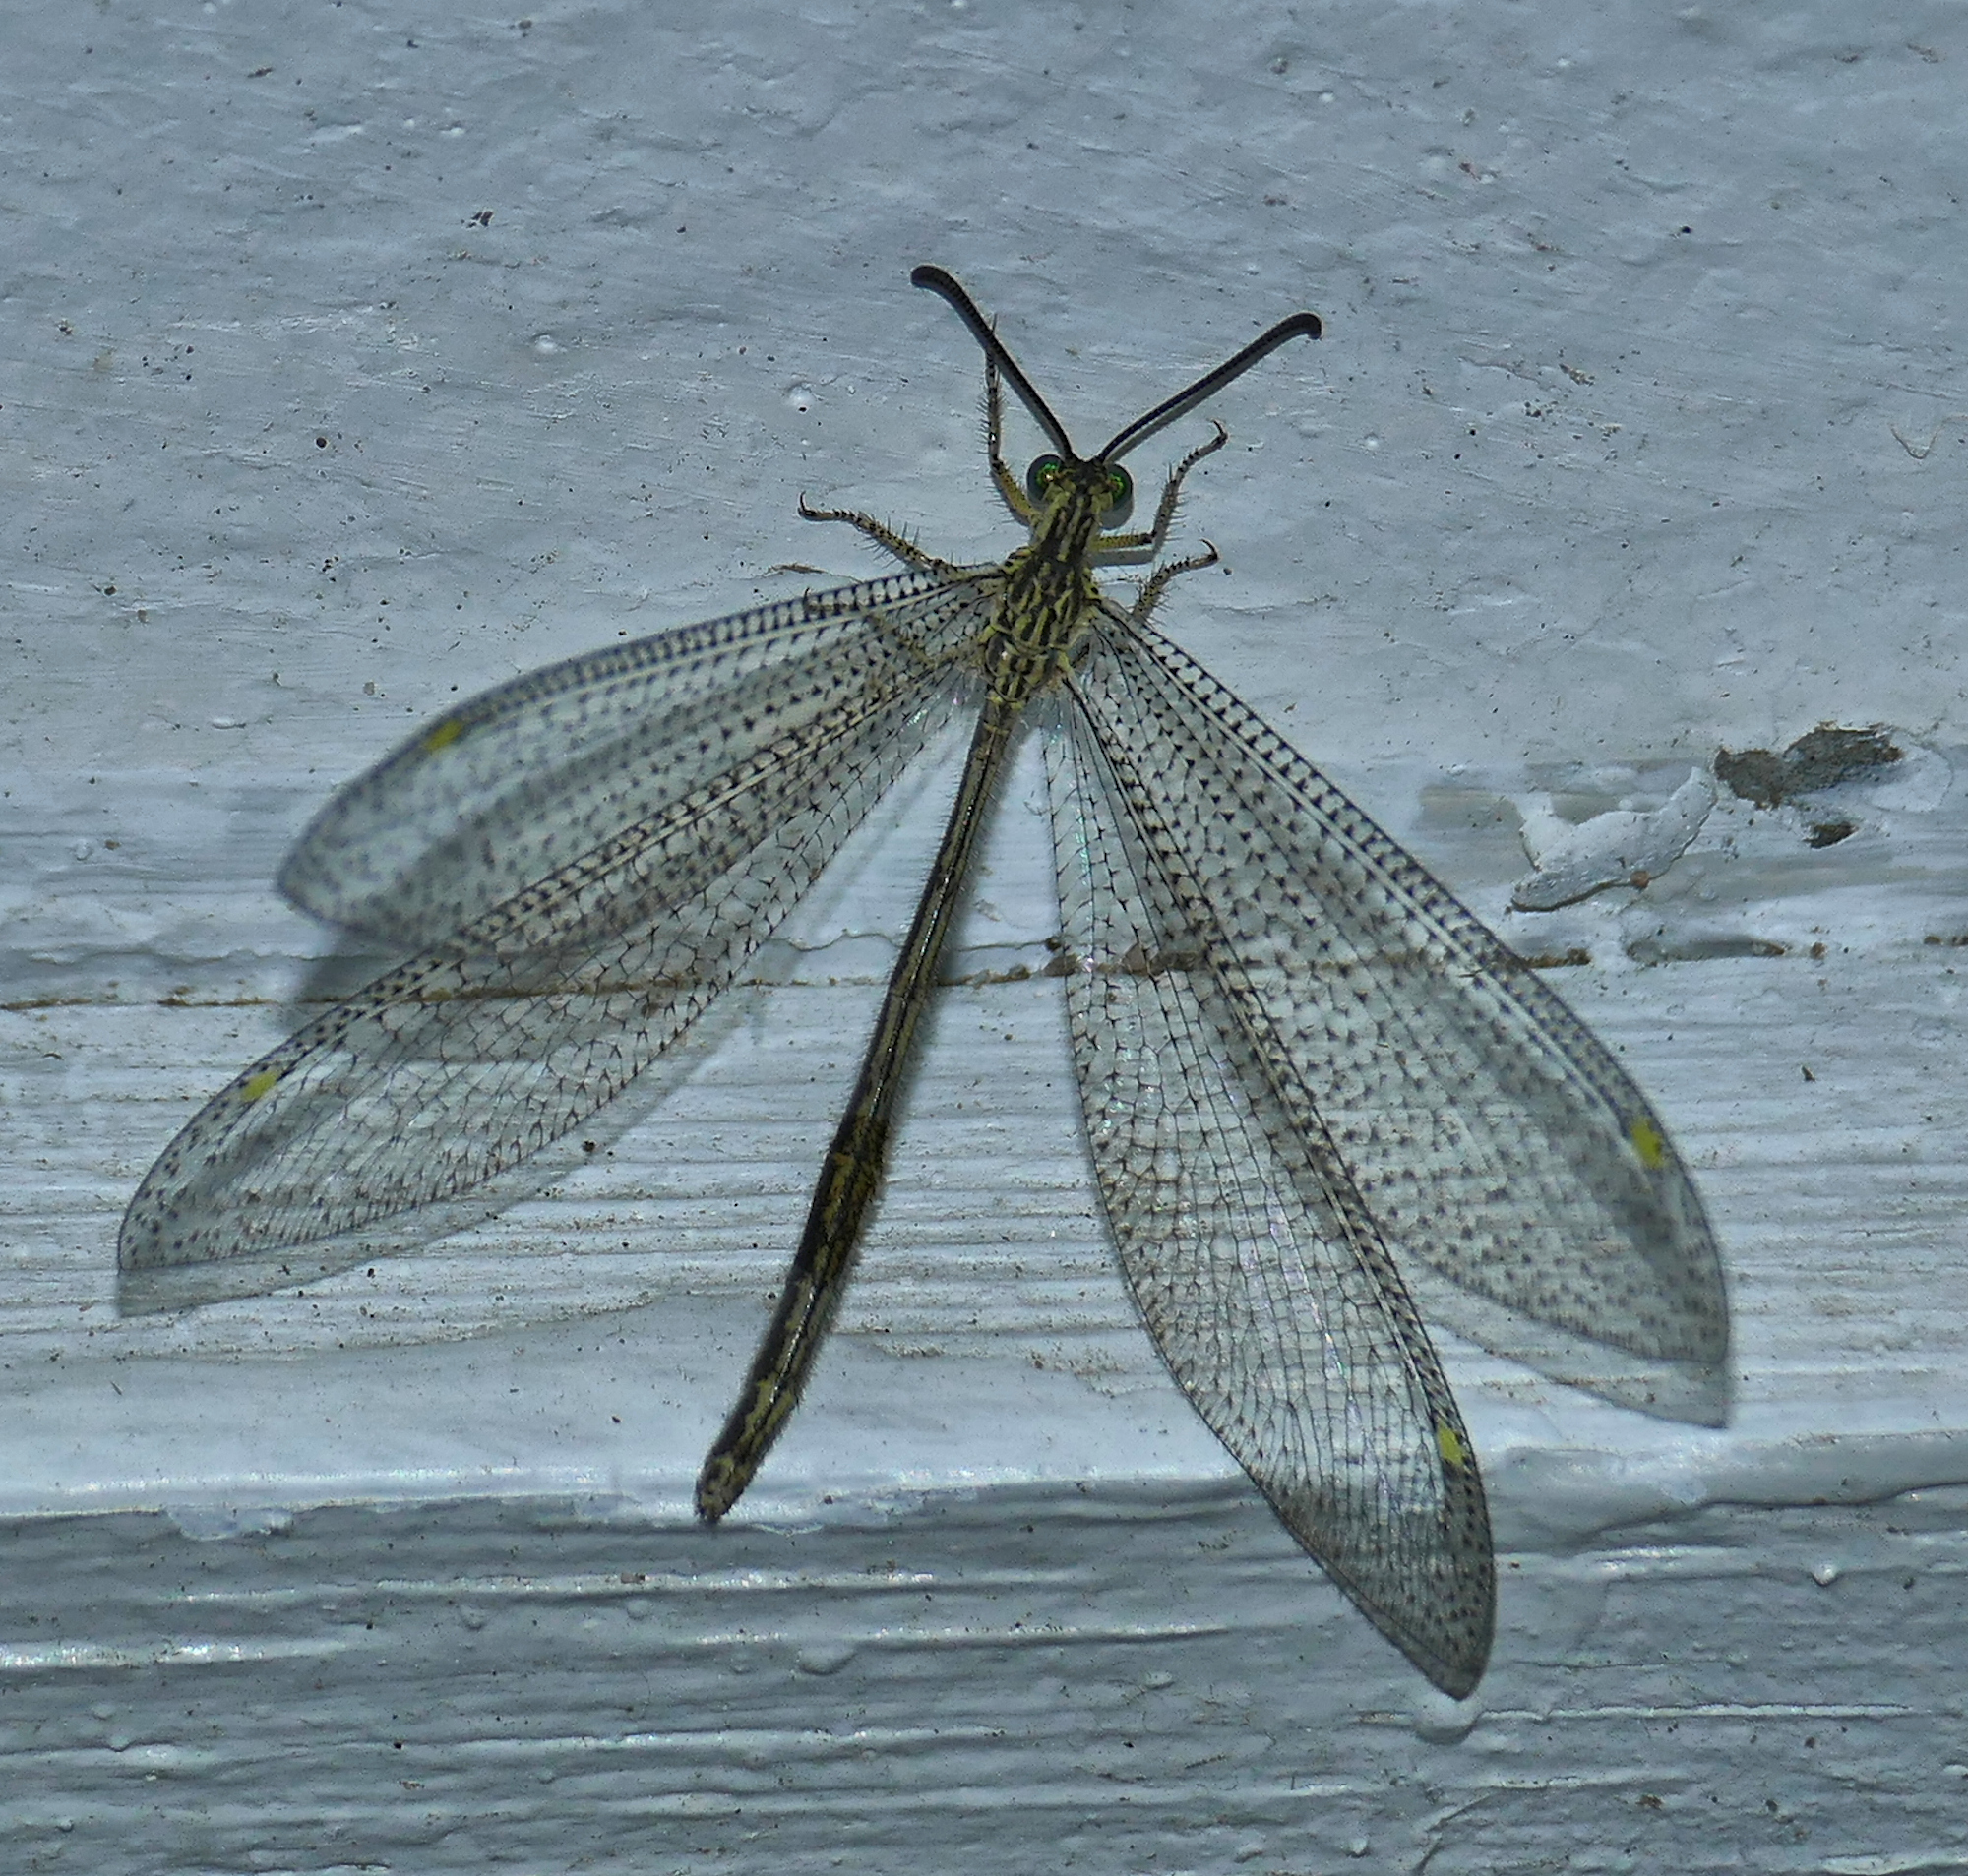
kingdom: Animalia
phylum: Arthropoda
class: Insecta
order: Neuroptera
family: Myrmeleontidae
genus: Brachynemurus
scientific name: Brachynemurus versutus
